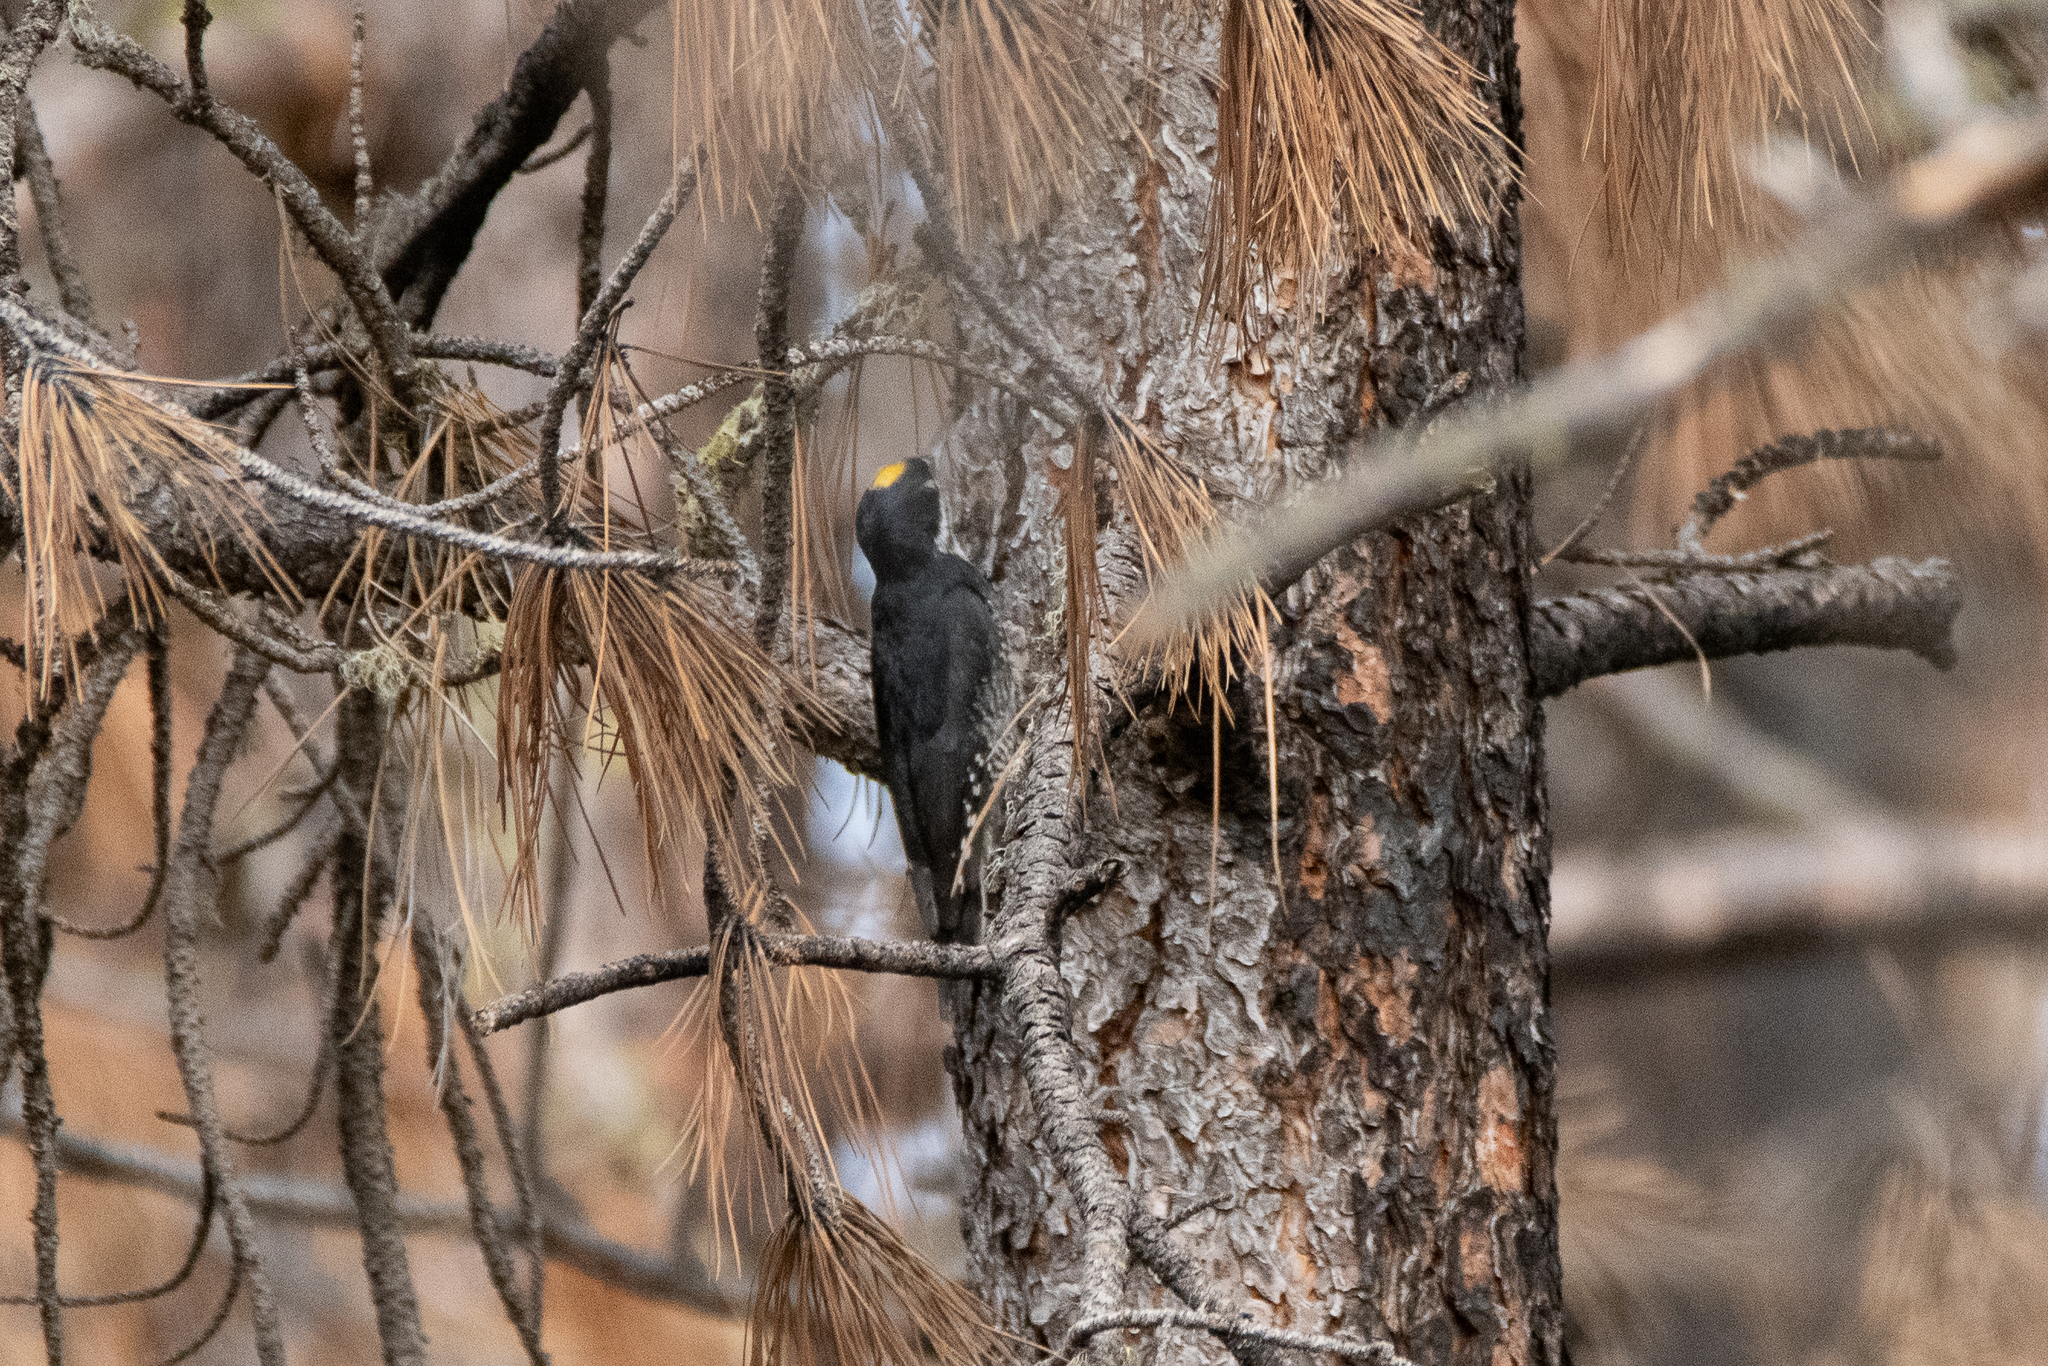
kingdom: Animalia
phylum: Chordata
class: Aves
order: Piciformes
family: Picidae
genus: Picoides
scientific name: Picoides arcticus
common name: Black-backed woodpecker
